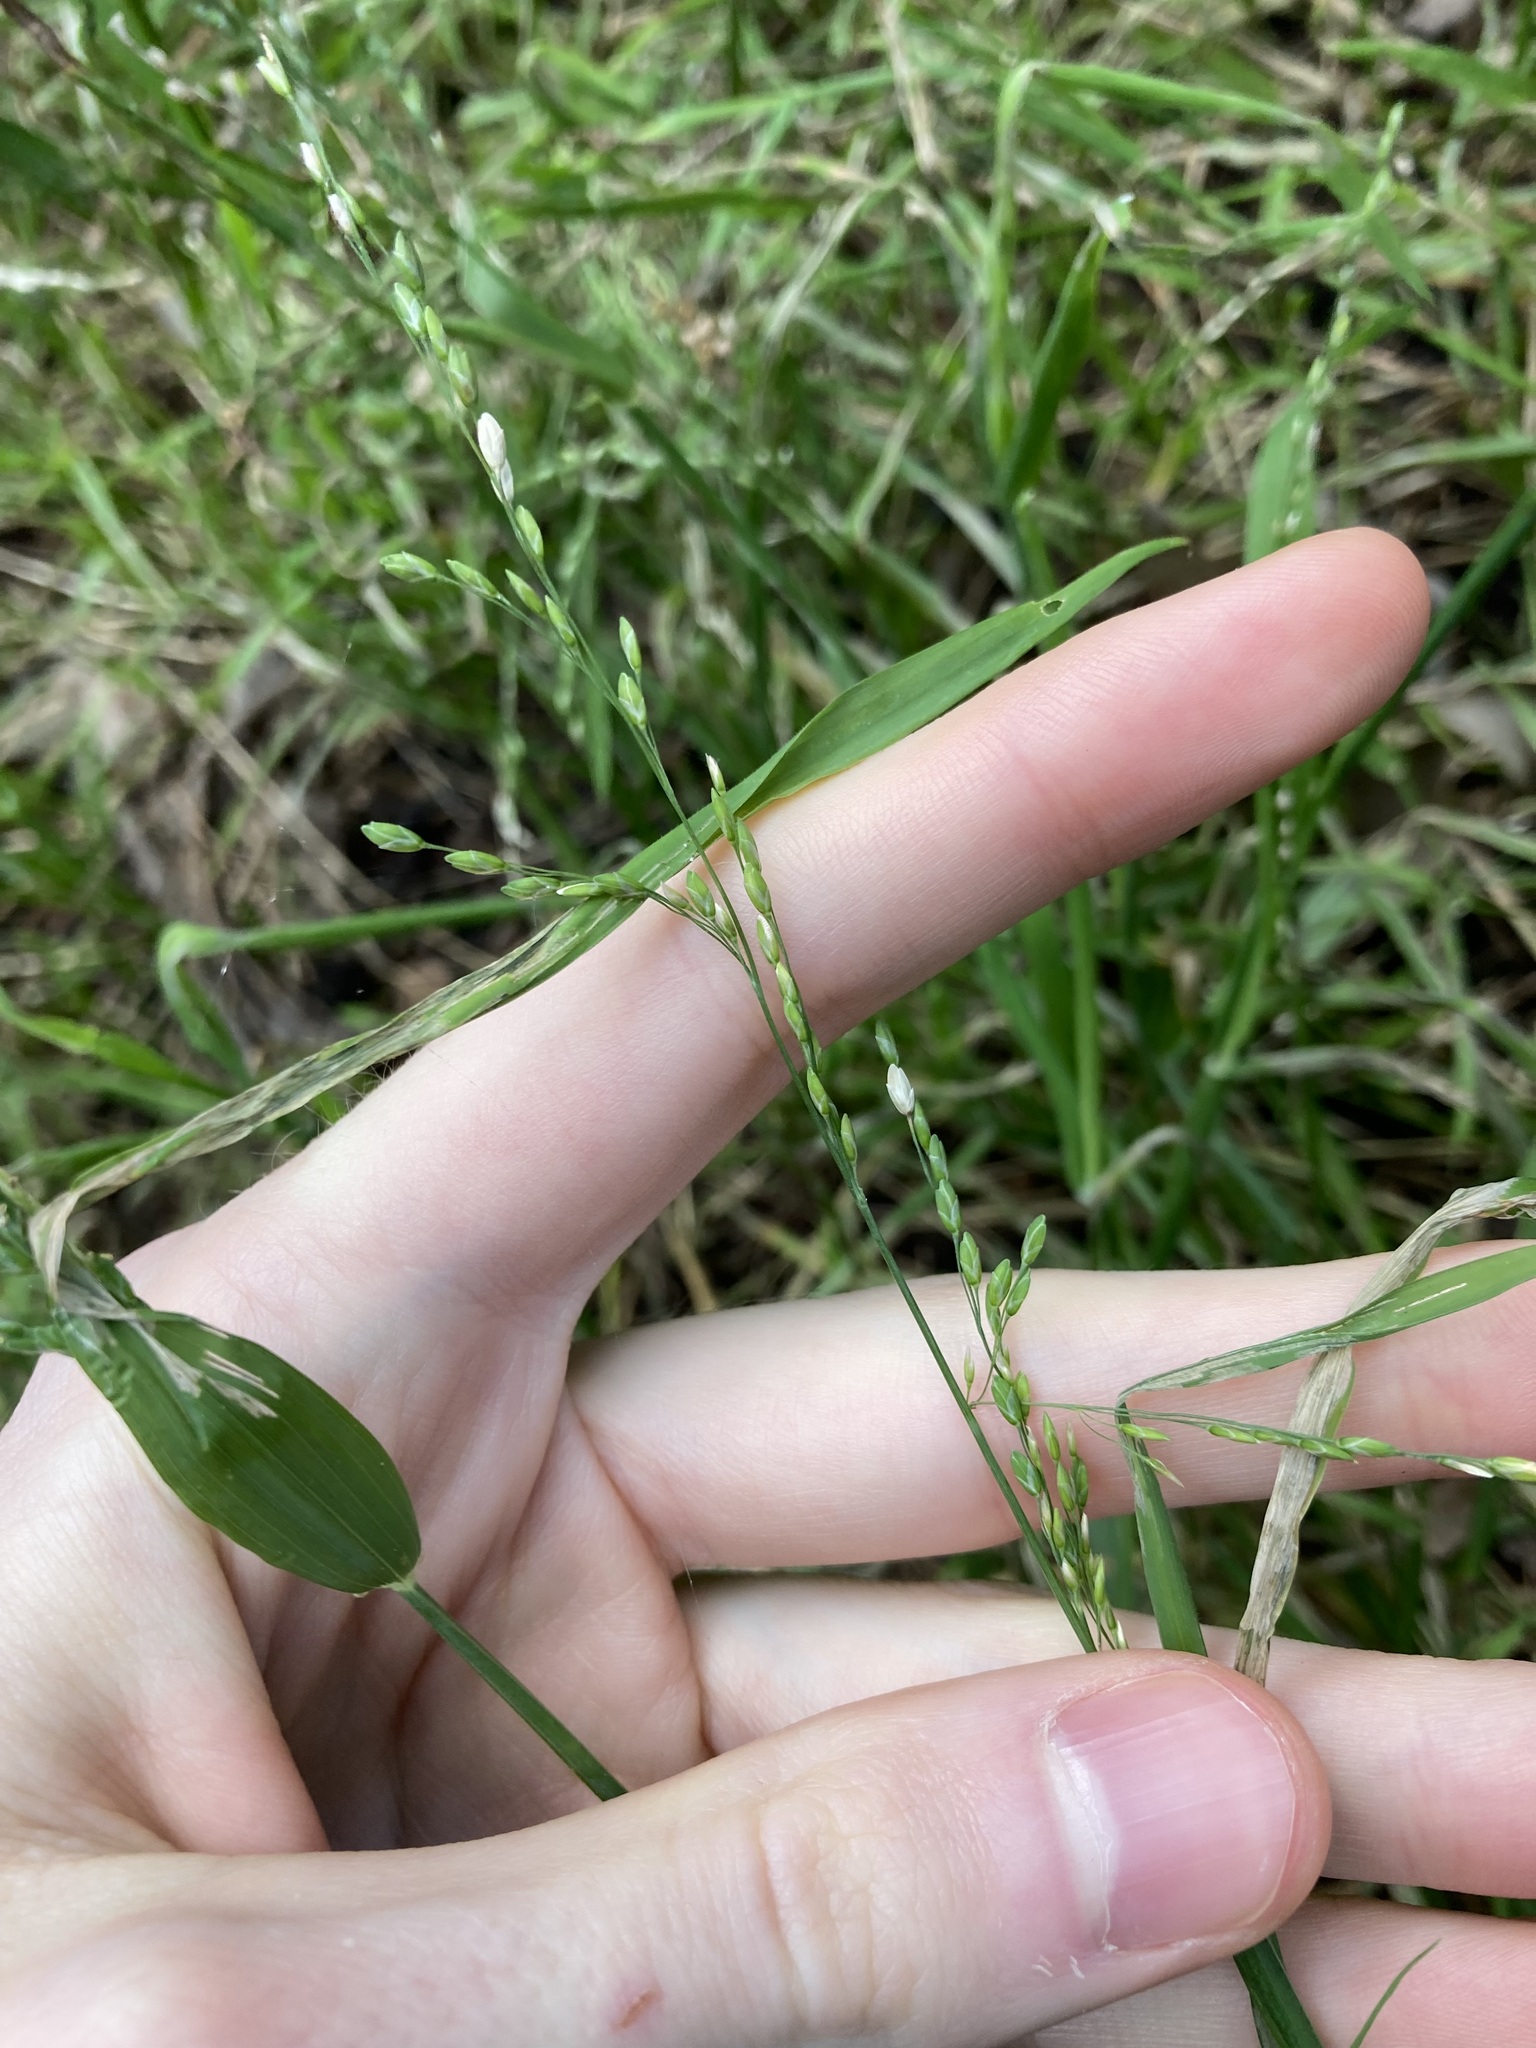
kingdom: Plantae
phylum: Tracheophyta
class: Liliopsida
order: Poales
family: Poaceae
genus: Ehrharta
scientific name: Ehrharta erecta
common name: Panic veldtgrass
